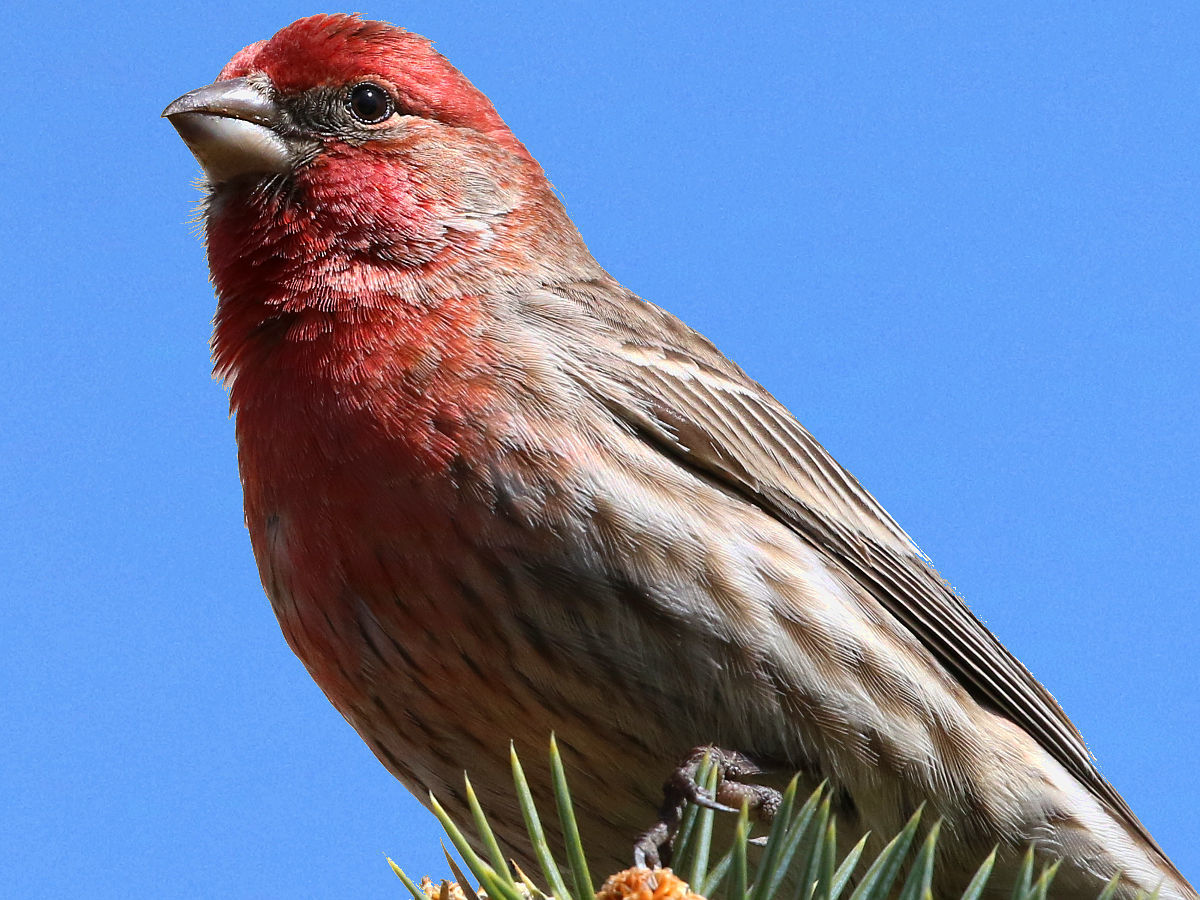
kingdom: Animalia
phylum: Chordata
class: Aves
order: Passeriformes
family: Fringillidae
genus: Haemorhous
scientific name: Haemorhous mexicanus
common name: House finch
